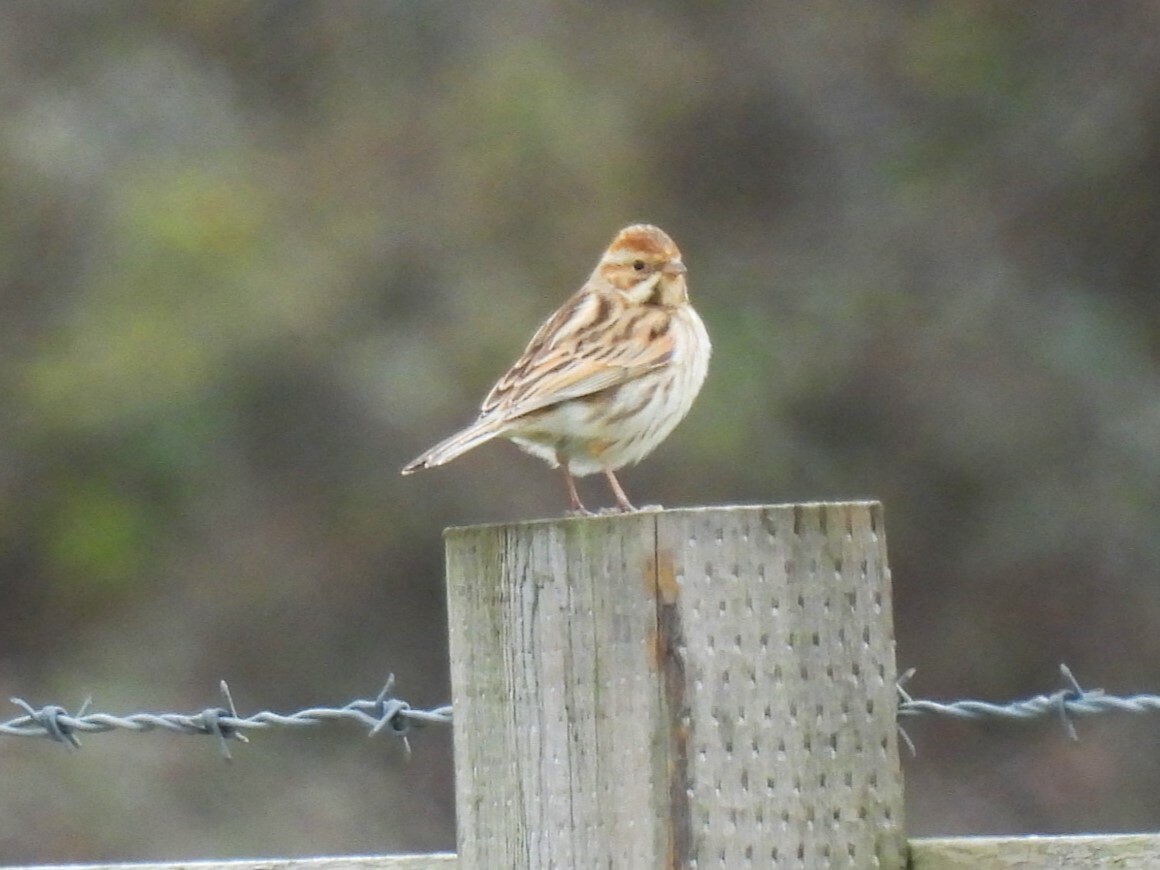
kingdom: Animalia
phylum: Chordata
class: Aves
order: Passeriformes
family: Emberizidae
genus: Emberiza
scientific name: Emberiza schoeniclus
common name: Reed bunting
